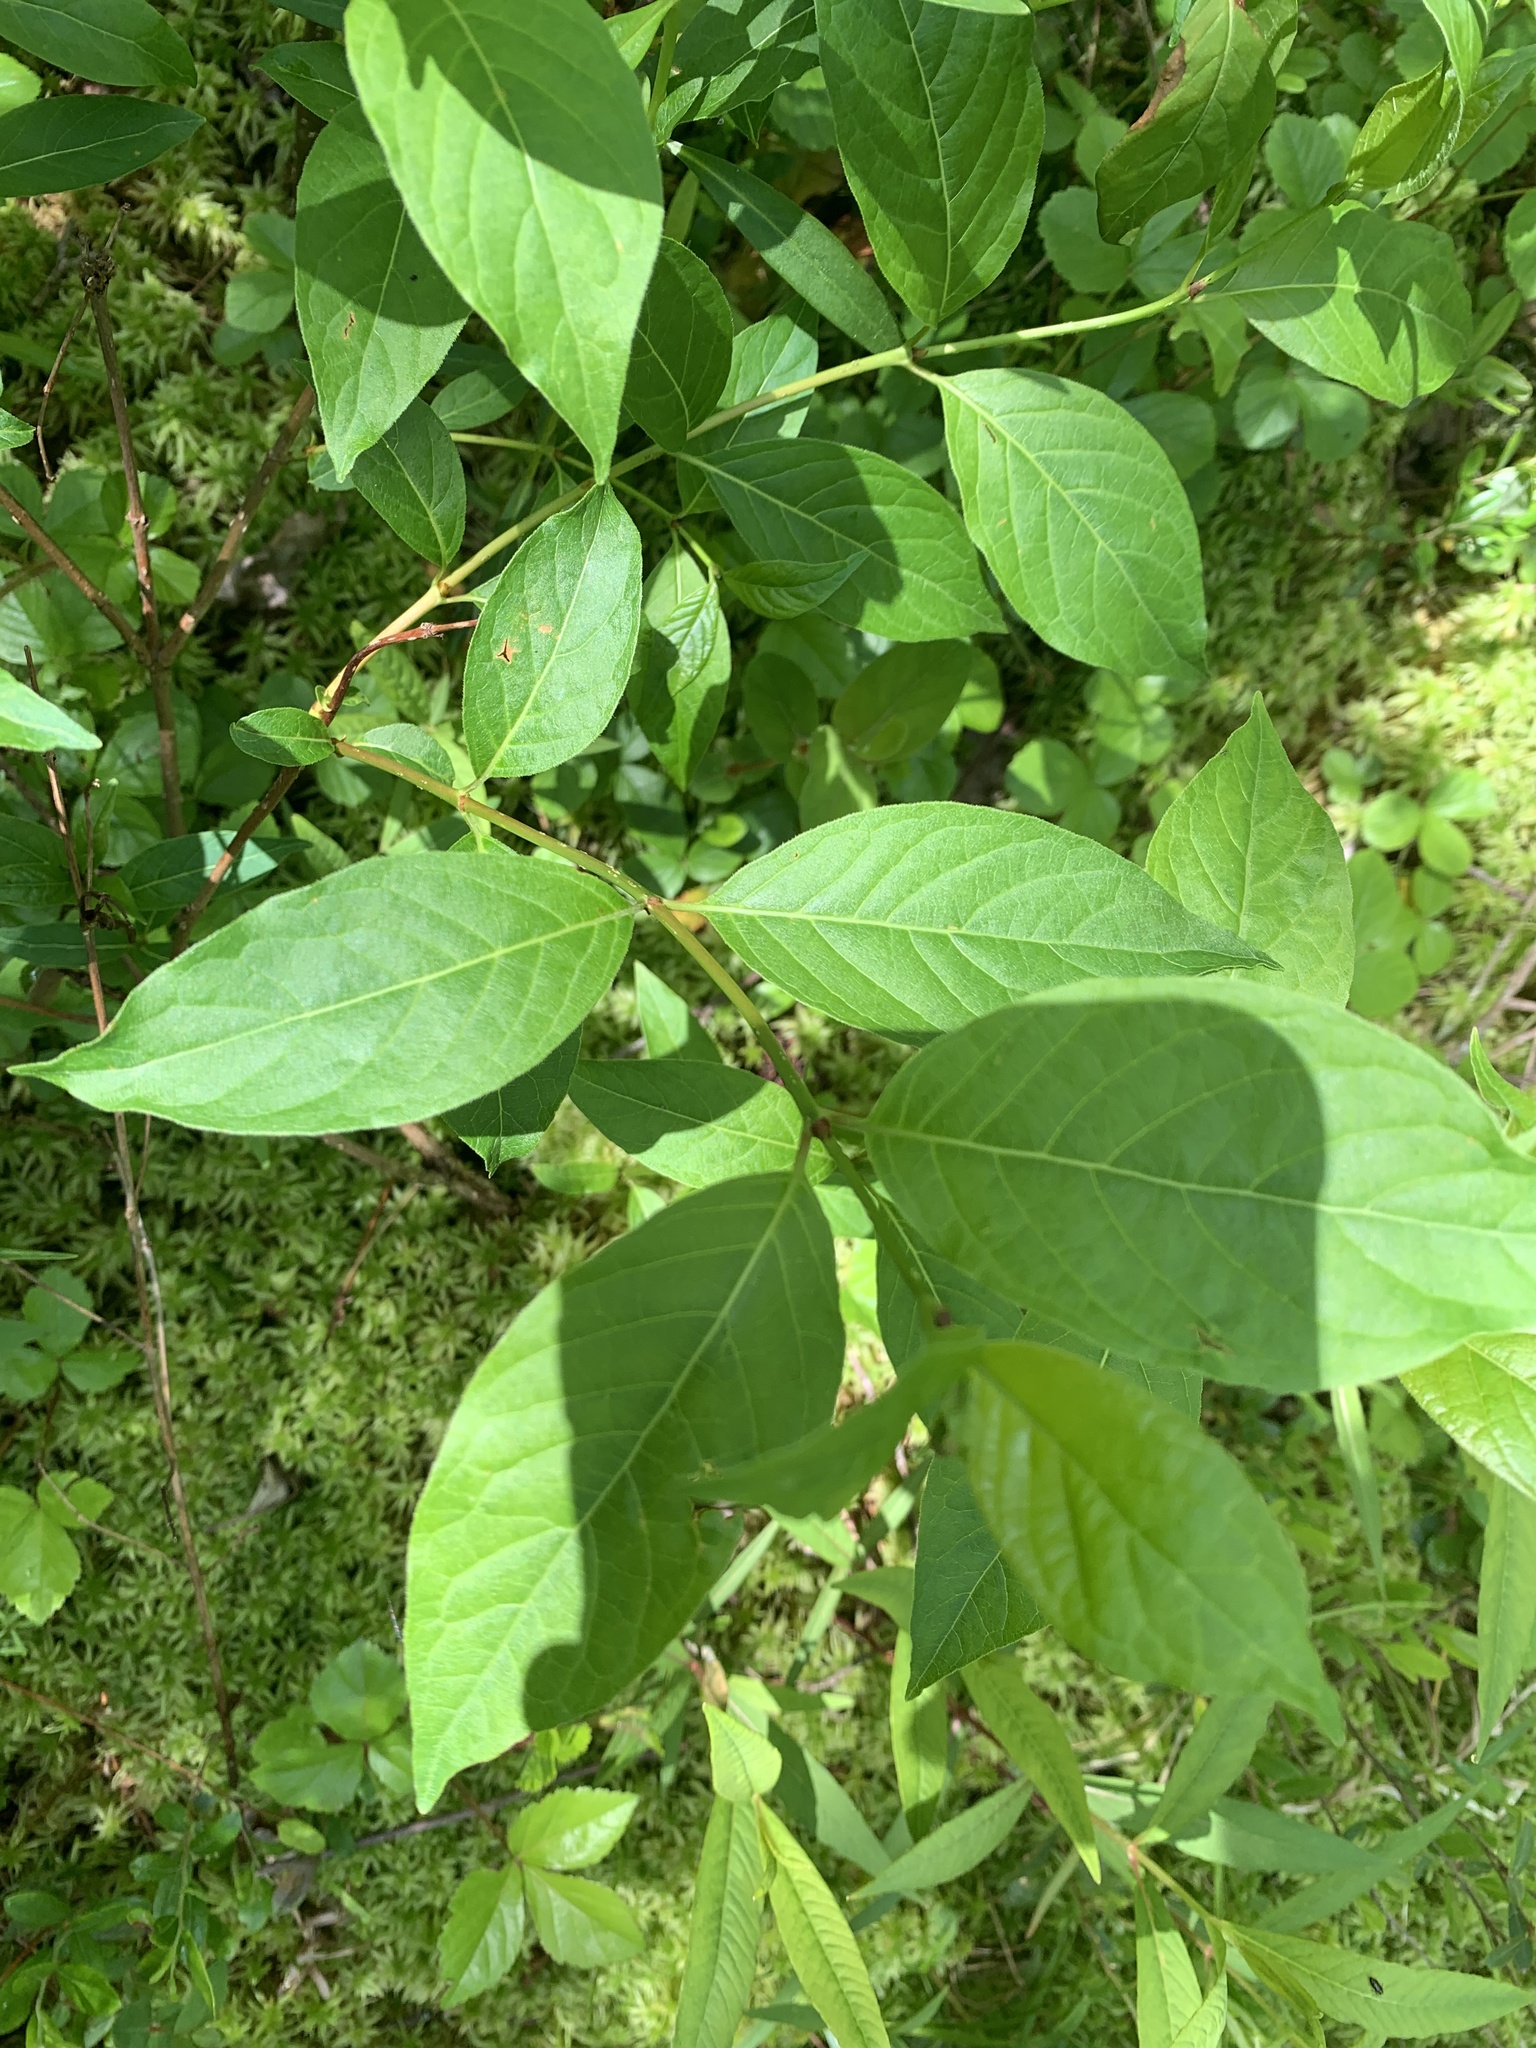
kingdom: Plantae
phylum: Tracheophyta
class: Magnoliopsida
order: Dipsacales
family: Caprifoliaceae
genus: Diervilla
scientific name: Diervilla lonicera
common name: Bush-honeysuckle
